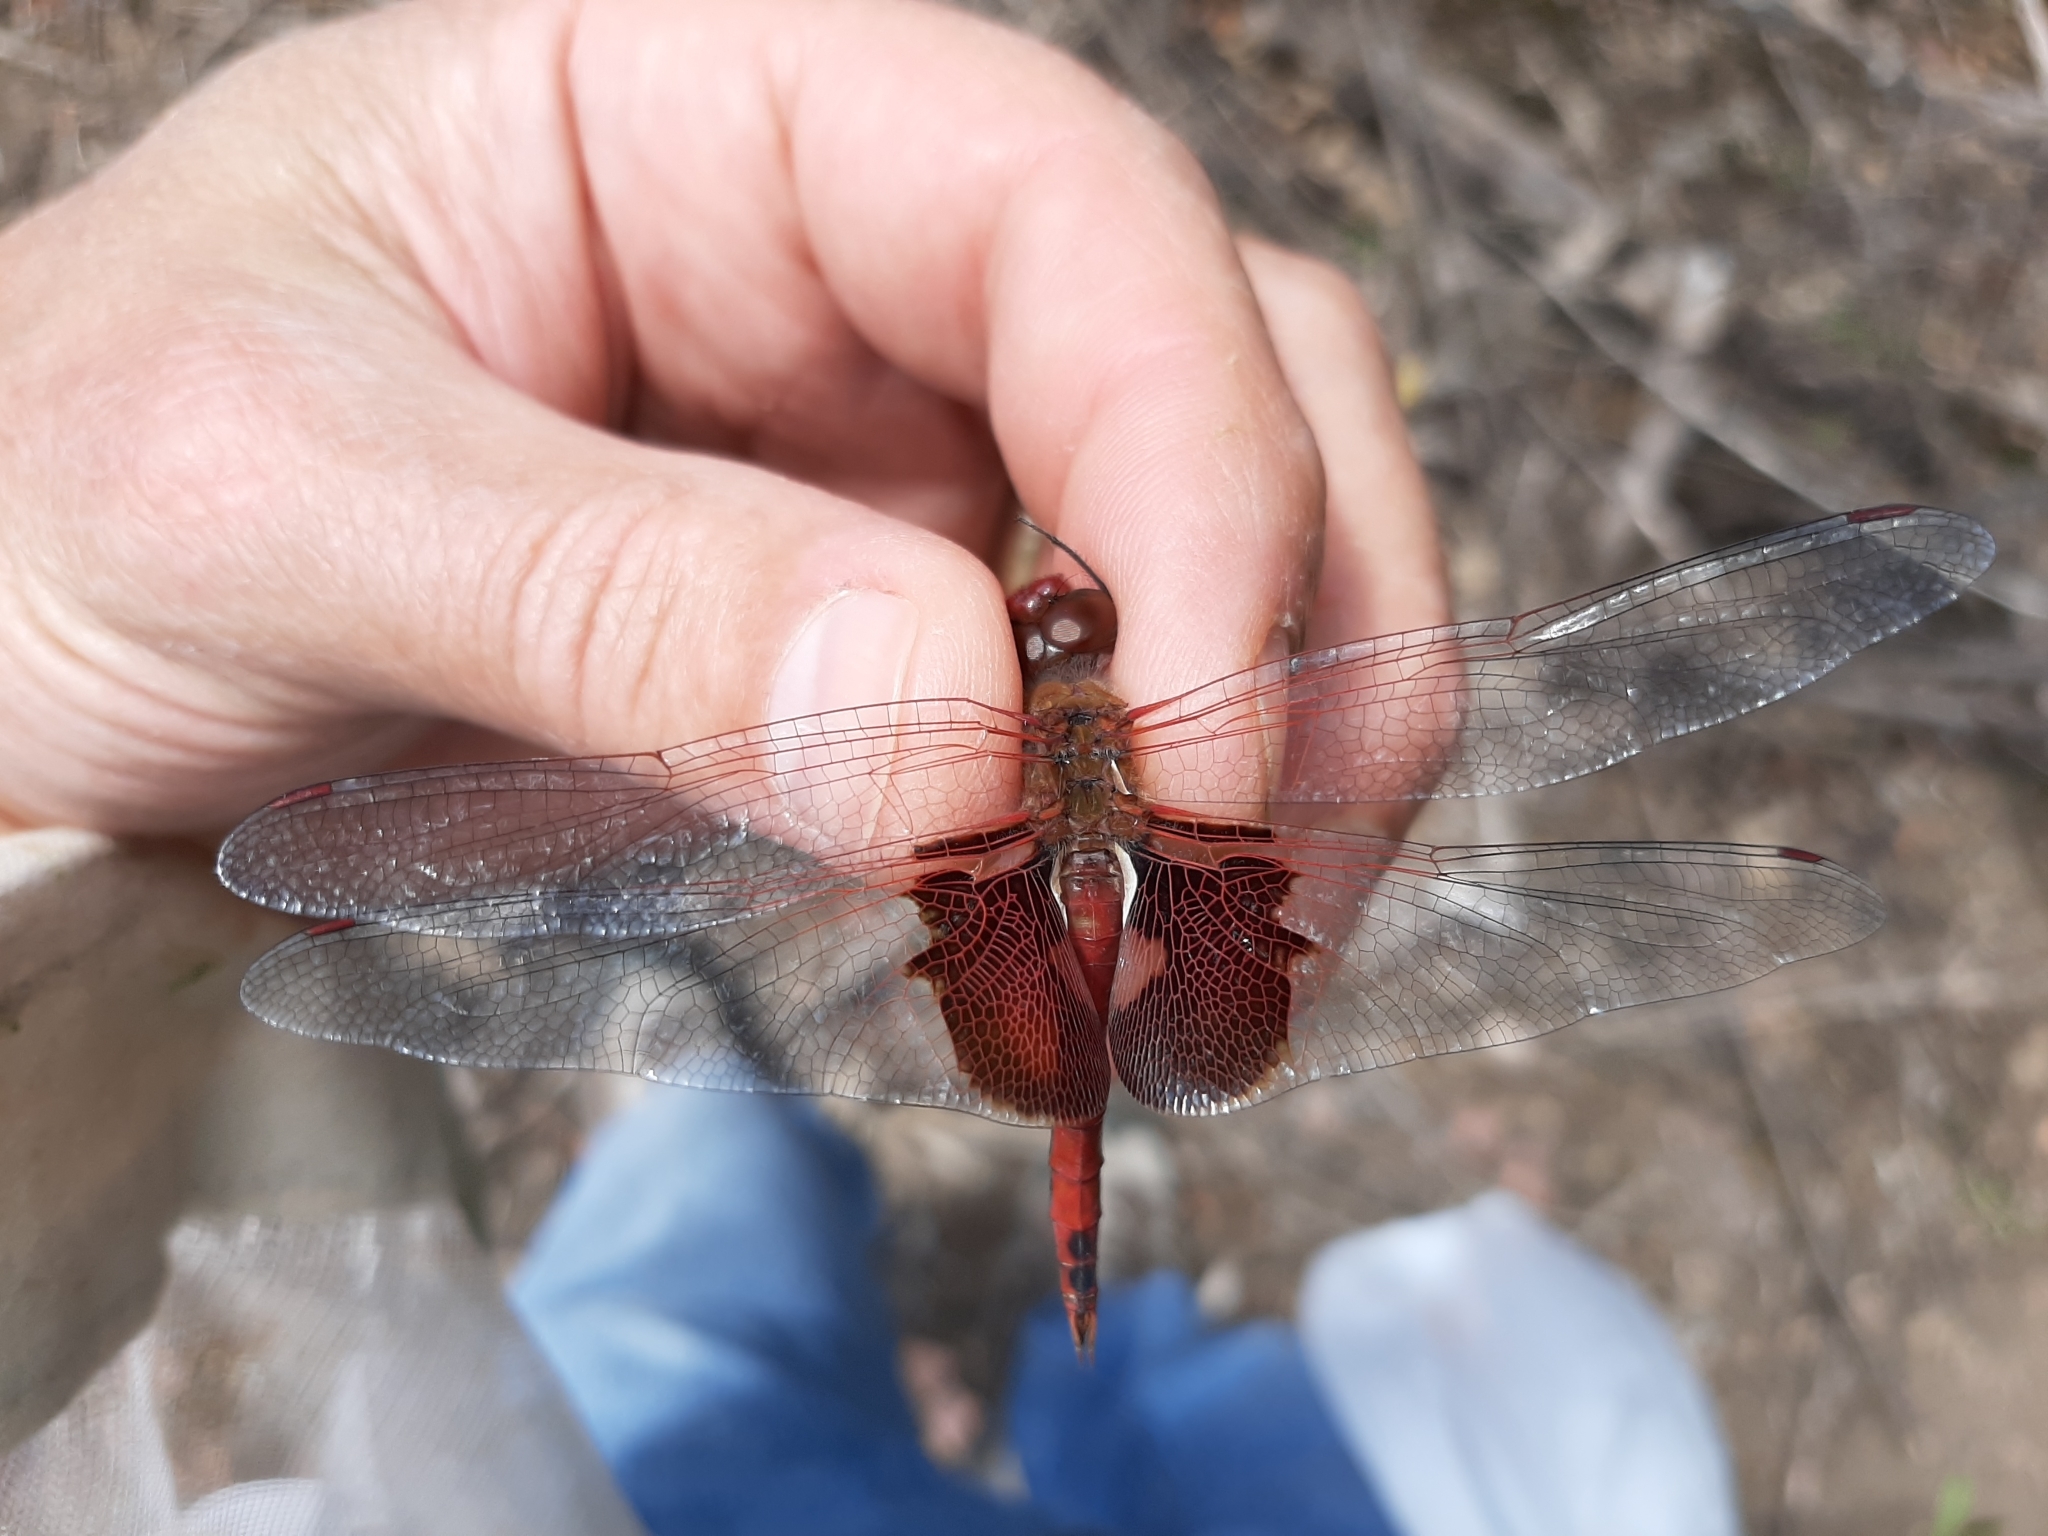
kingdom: Animalia
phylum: Arthropoda
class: Insecta
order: Odonata
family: Libellulidae
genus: Tramea
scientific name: Tramea onusta
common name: Red saddlebags
